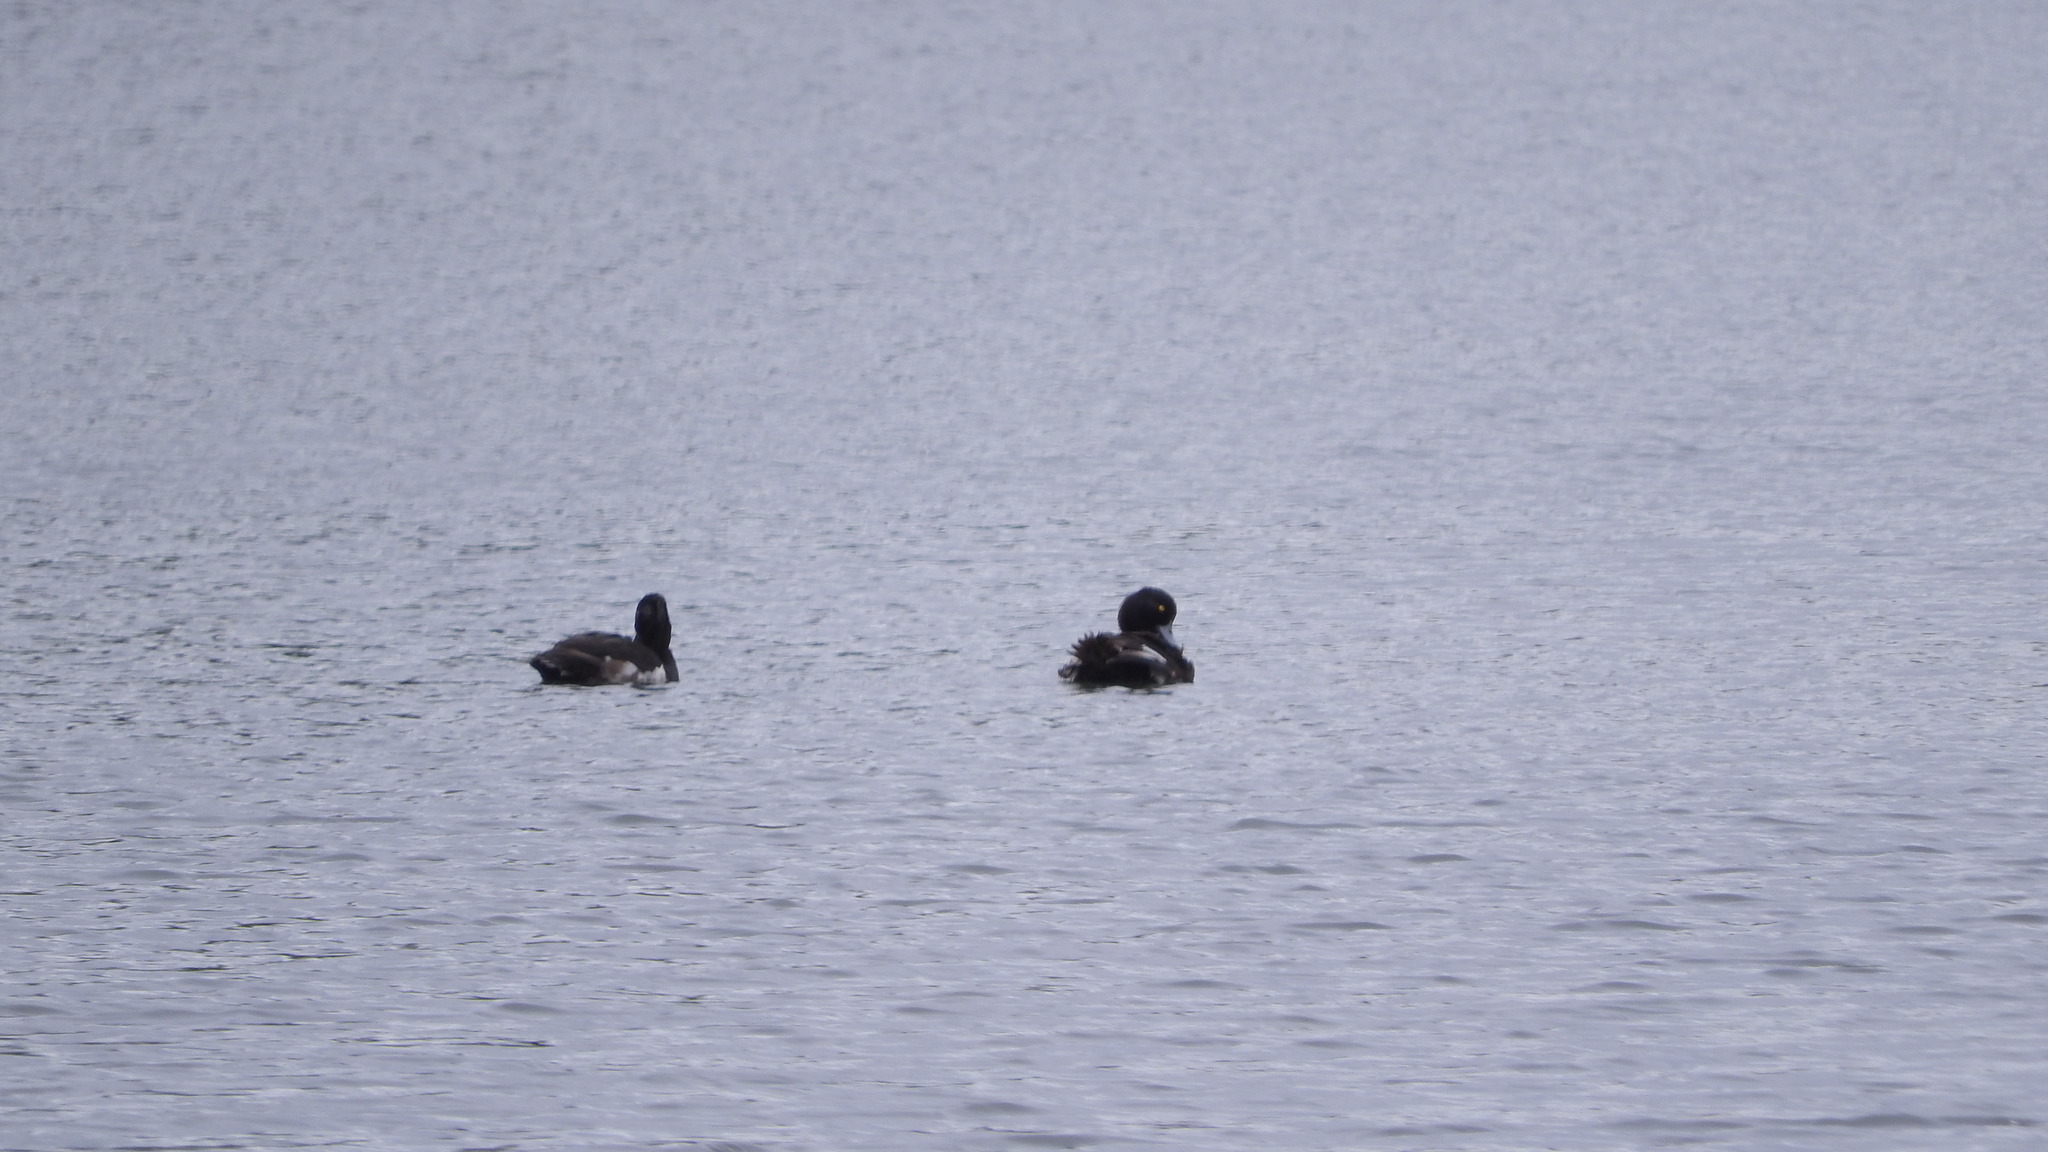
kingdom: Animalia
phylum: Chordata
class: Aves
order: Anseriformes
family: Anatidae
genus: Aythya
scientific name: Aythya fuligula
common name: Tufted duck
